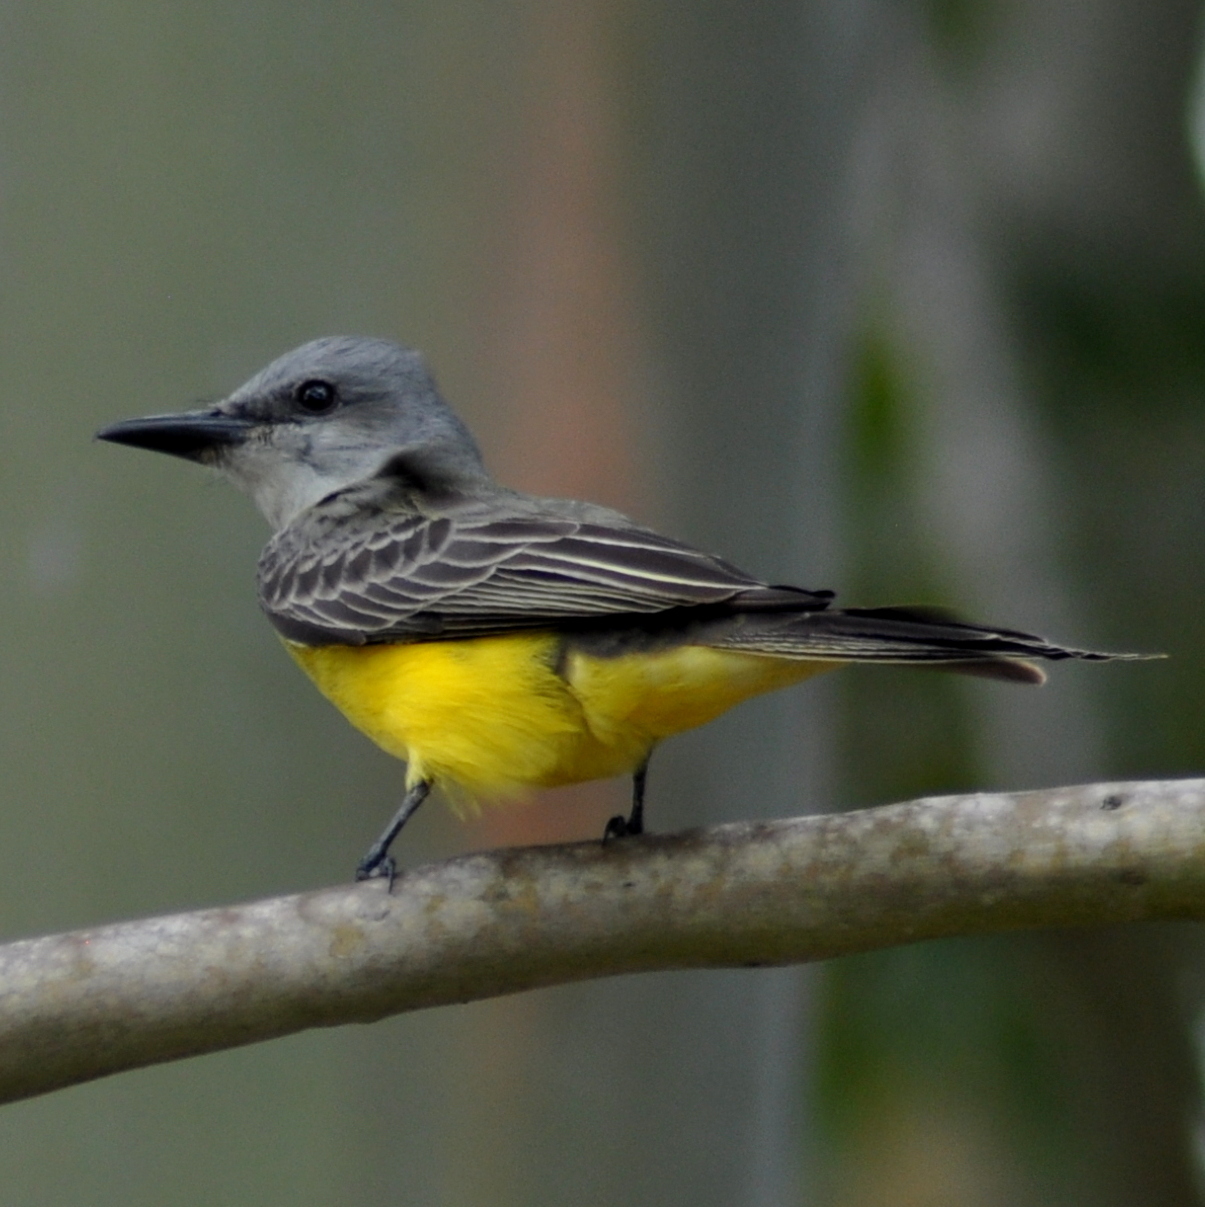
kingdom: Animalia
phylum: Chordata
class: Aves
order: Passeriformes
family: Tyrannidae
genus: Tyrannus
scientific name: Tyrannus melancholicus
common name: Tropical kingbird
